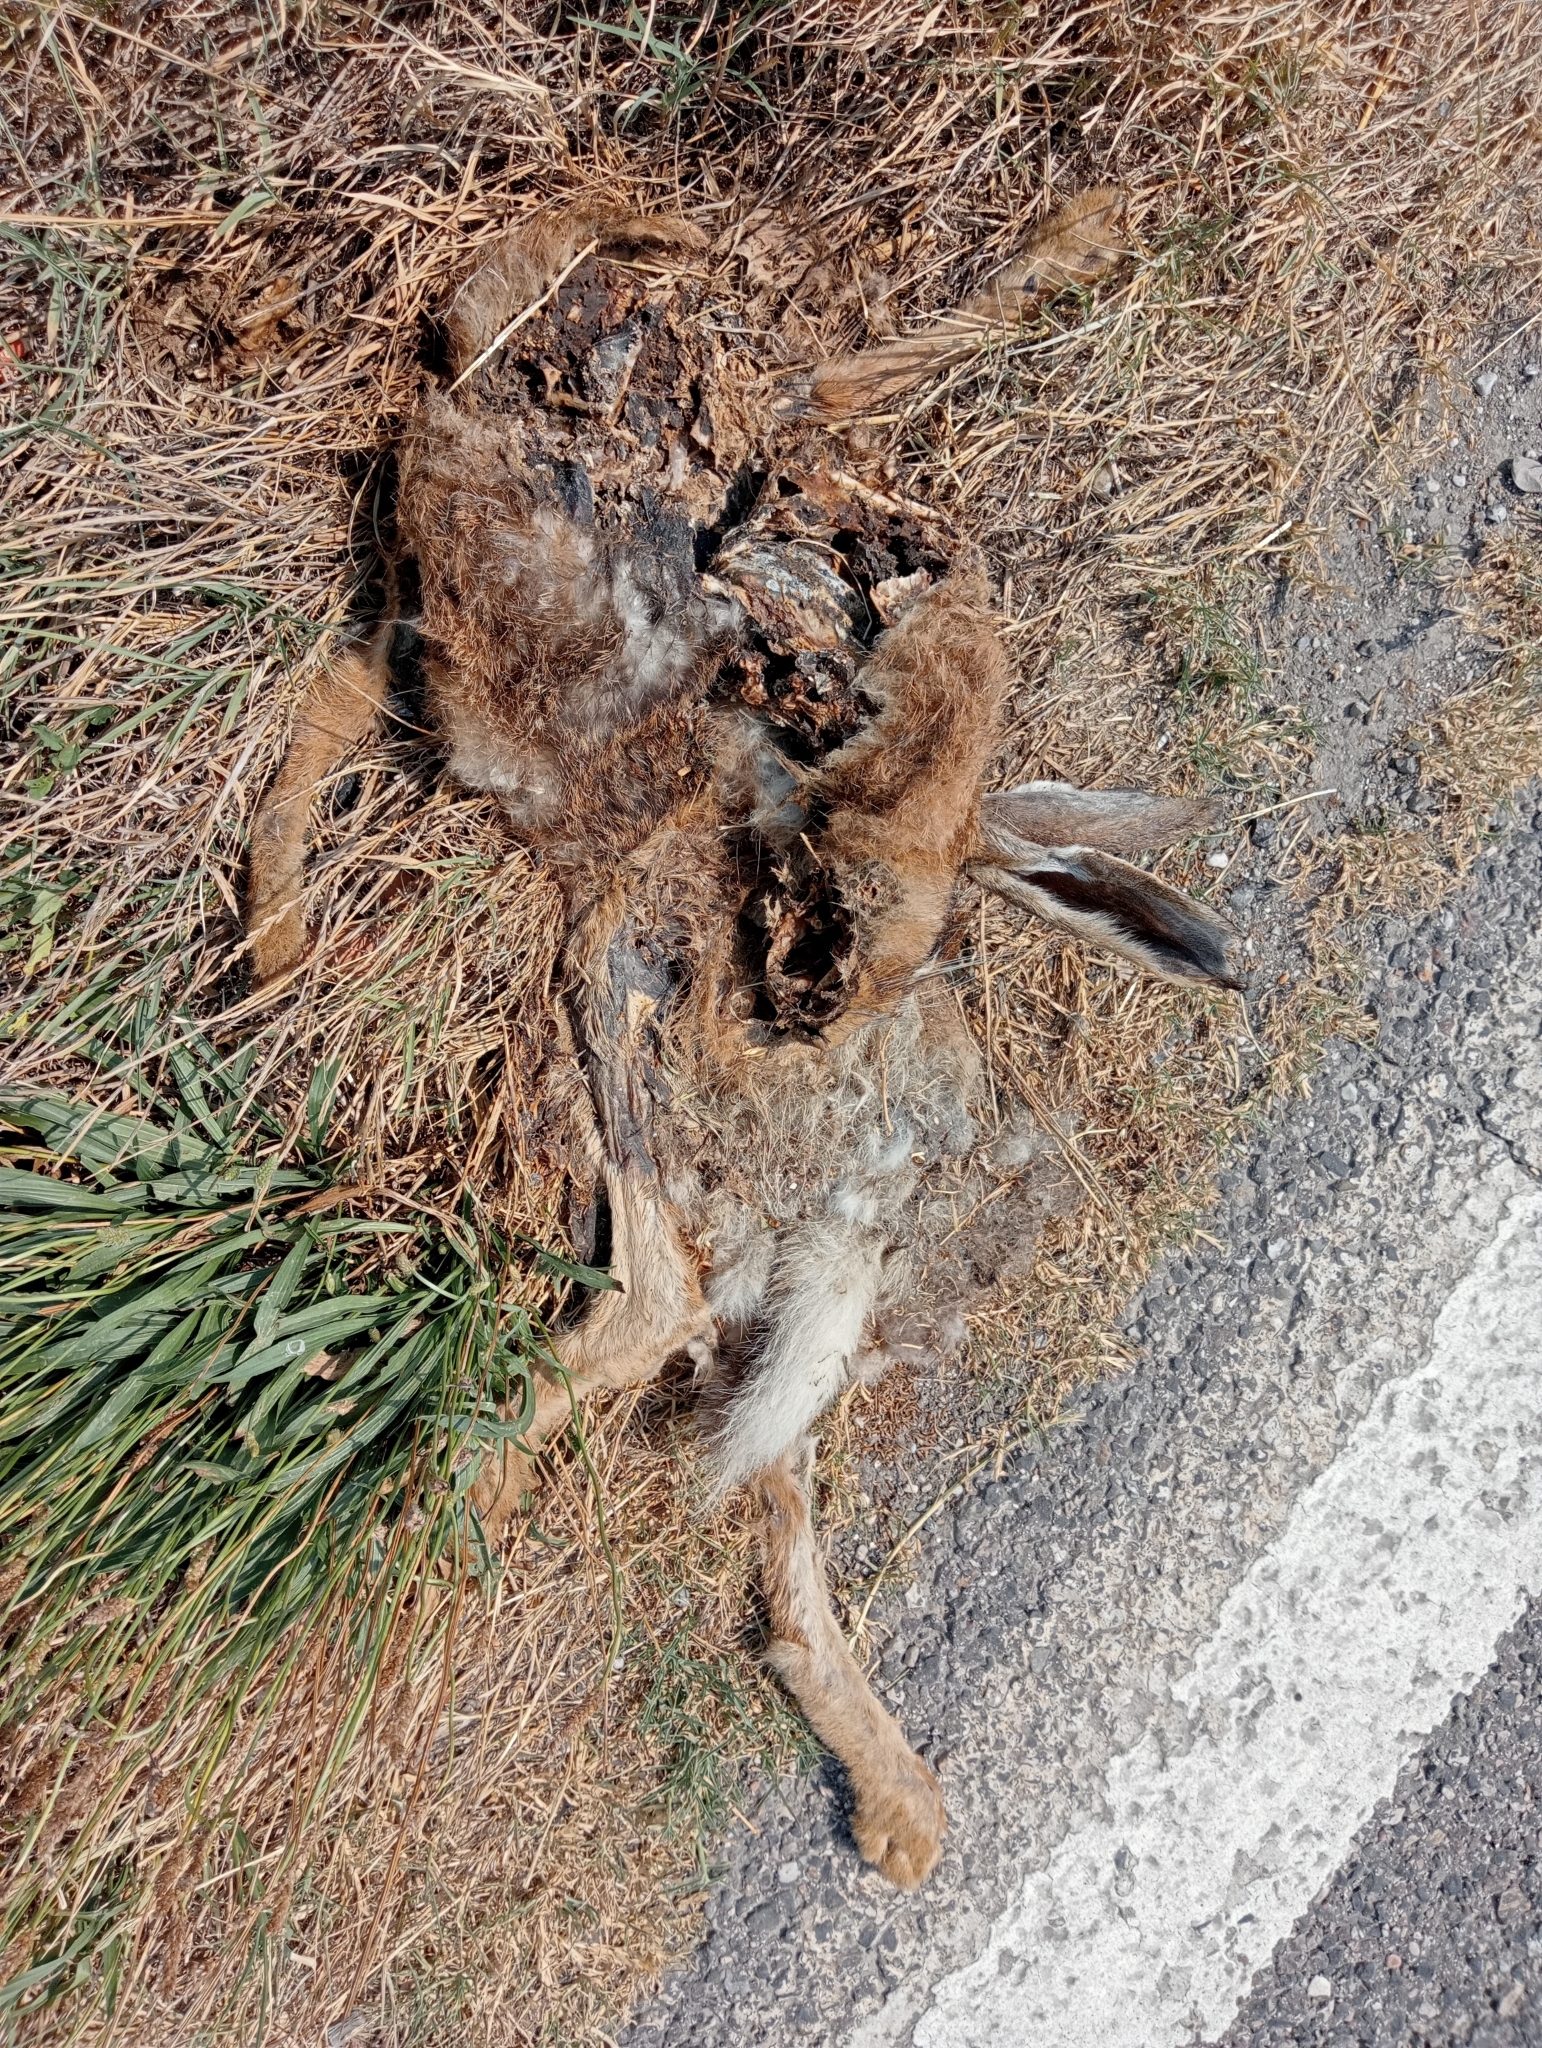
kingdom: Animalia
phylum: Chordata
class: Mammalia
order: Lagomorpha
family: Leporidae
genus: Lepus
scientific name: Lepus europaeus
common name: European hare
